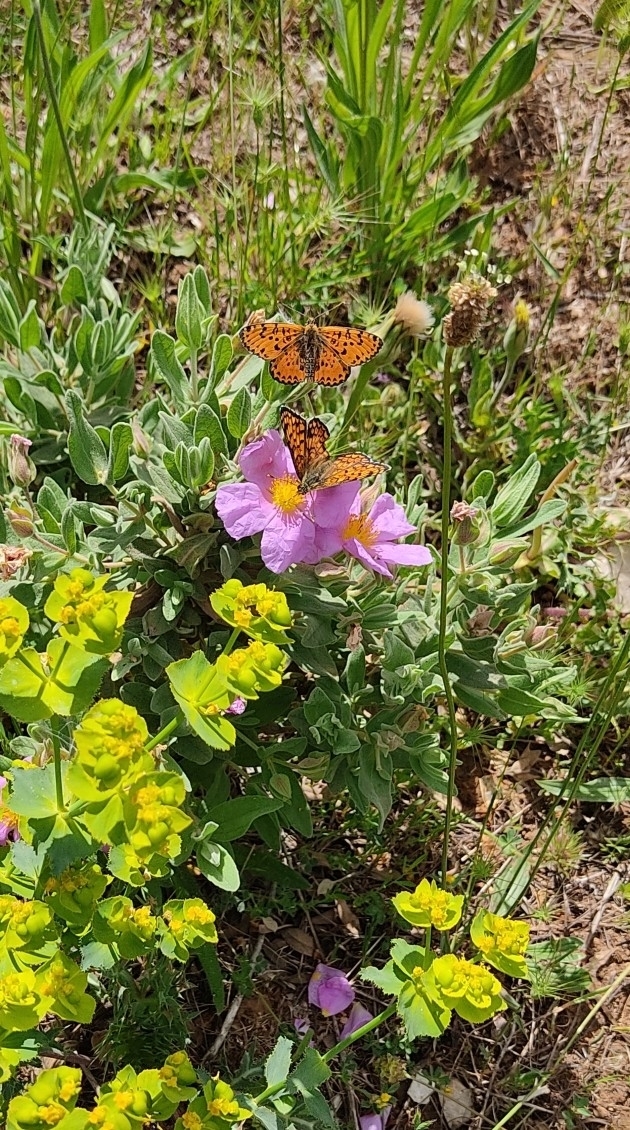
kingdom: Animalia
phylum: Arthropoda
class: Insecta
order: Lepidoptera
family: Nymphalidae
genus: Melitaea
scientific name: Melitaea didyma
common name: Spotted fritillary
